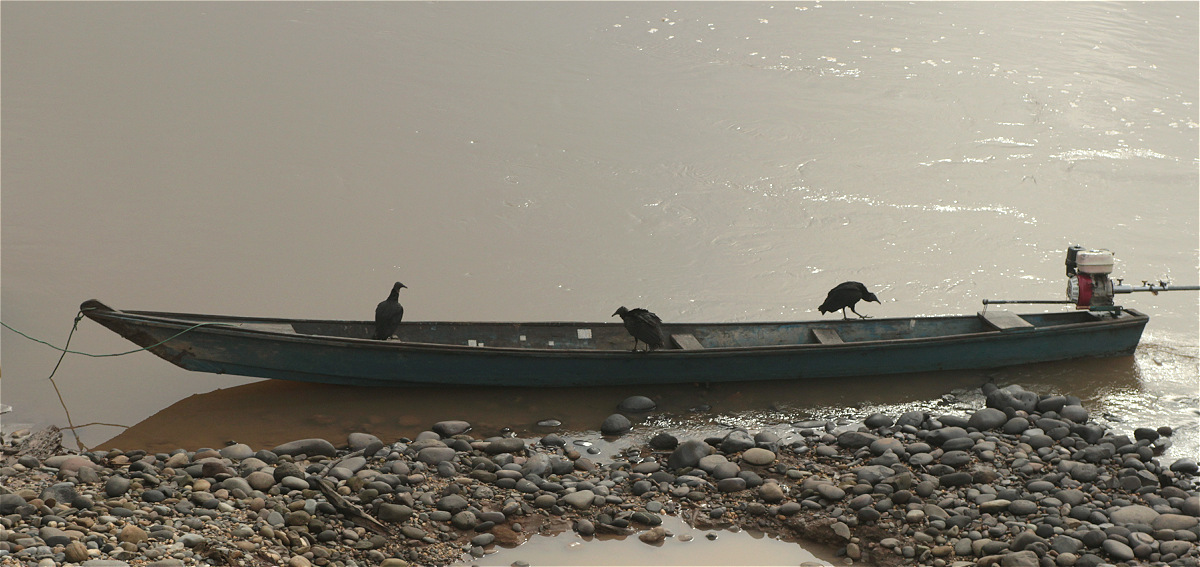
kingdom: Animalia
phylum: Chordata
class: Aves
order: Accipitriformes
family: Cathartidae
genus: Coragyps
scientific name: Coragyps atratus
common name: Black vulture
